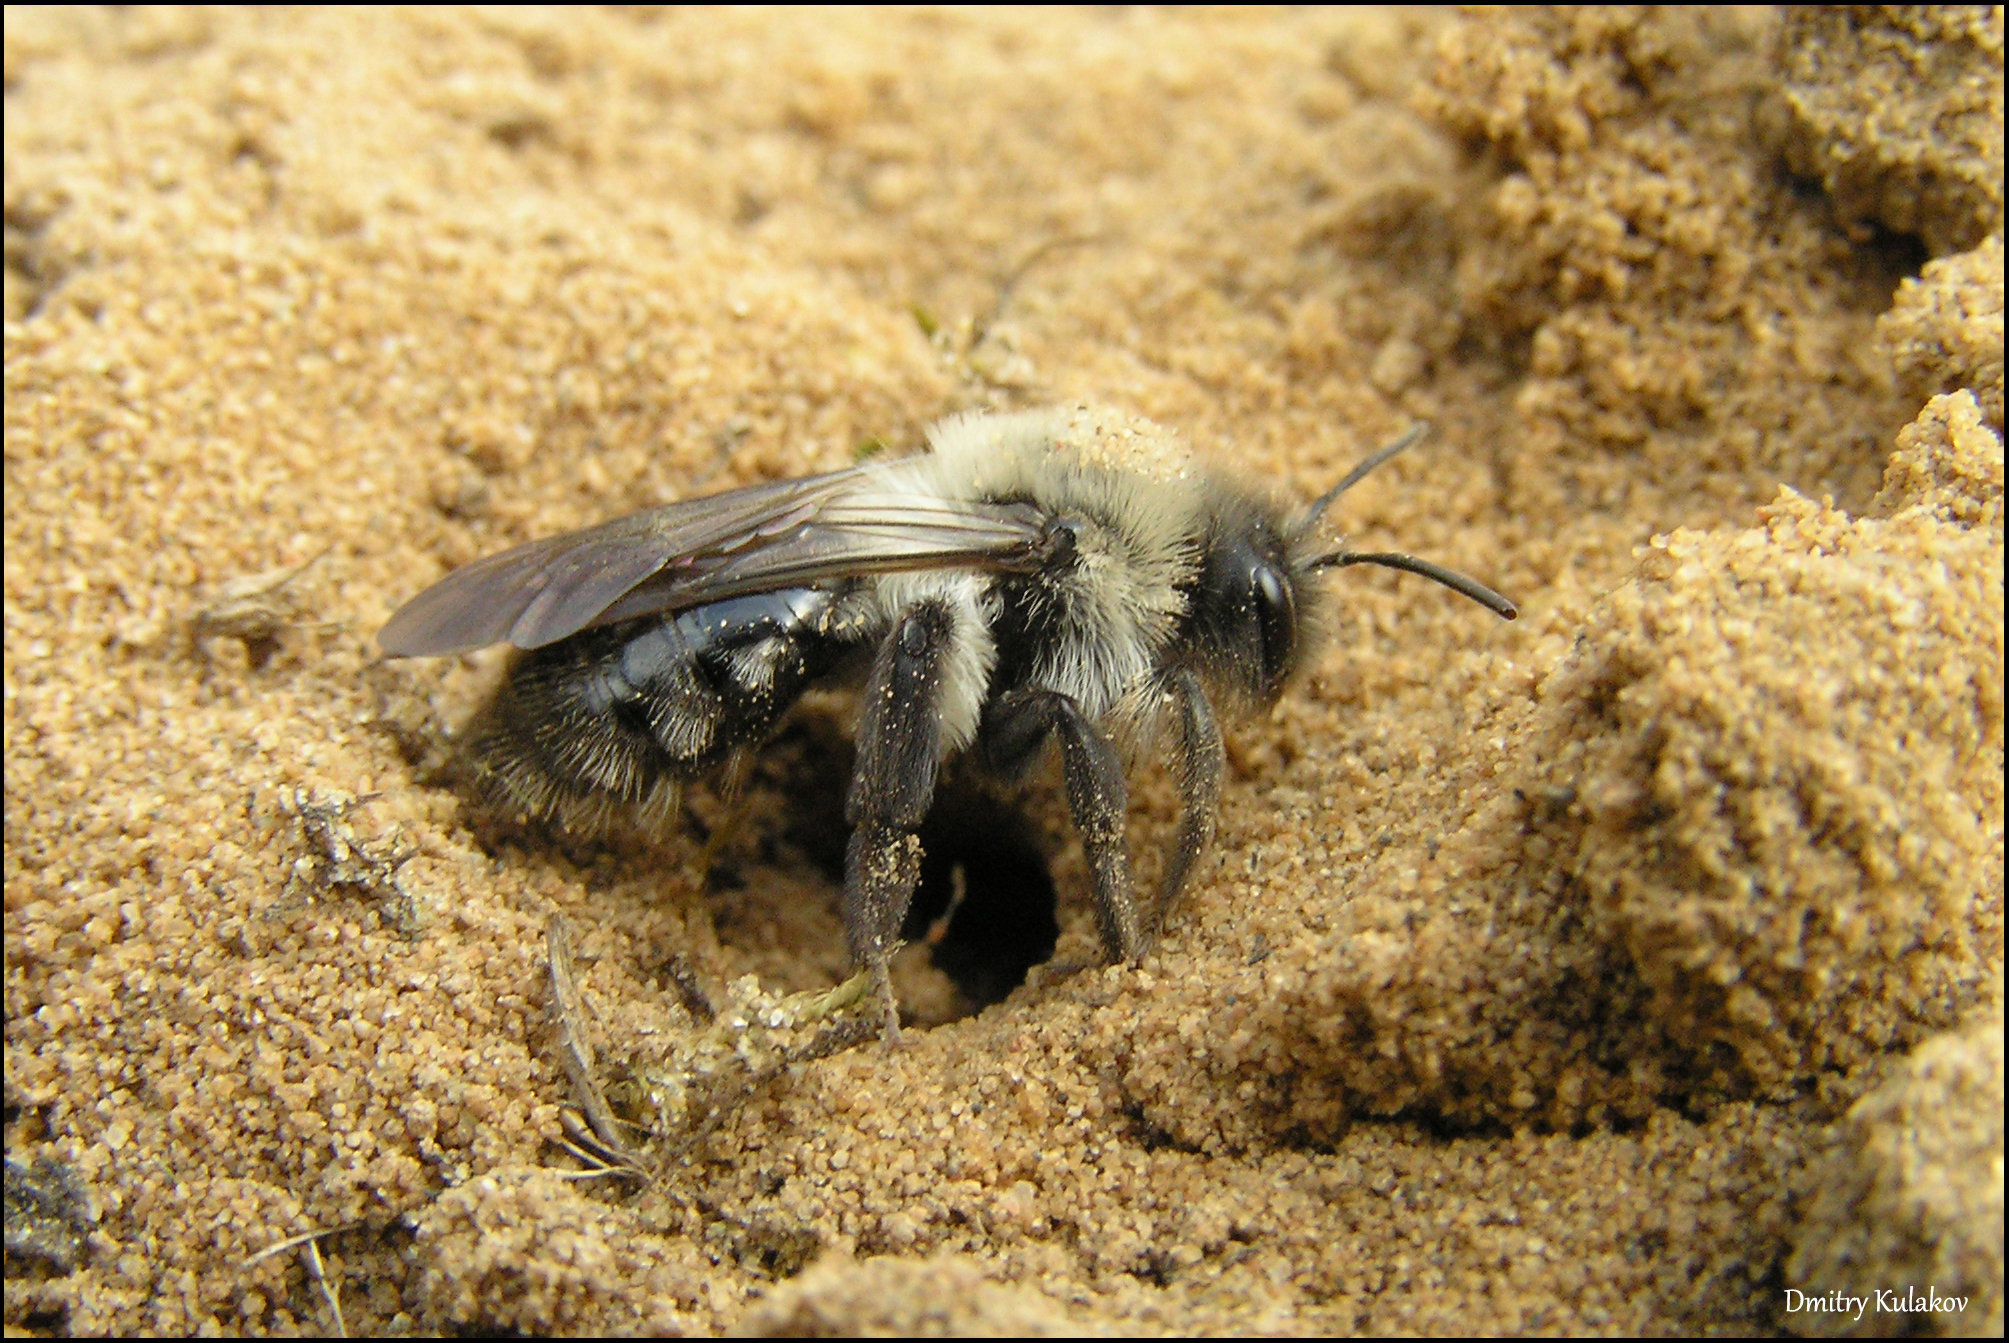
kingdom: Animalia
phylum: Arthropoda
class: Insecta
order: Hymenoptera
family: Andrenidae
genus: Andrena
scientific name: Andrena vaga
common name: Grey-backed mining bee
